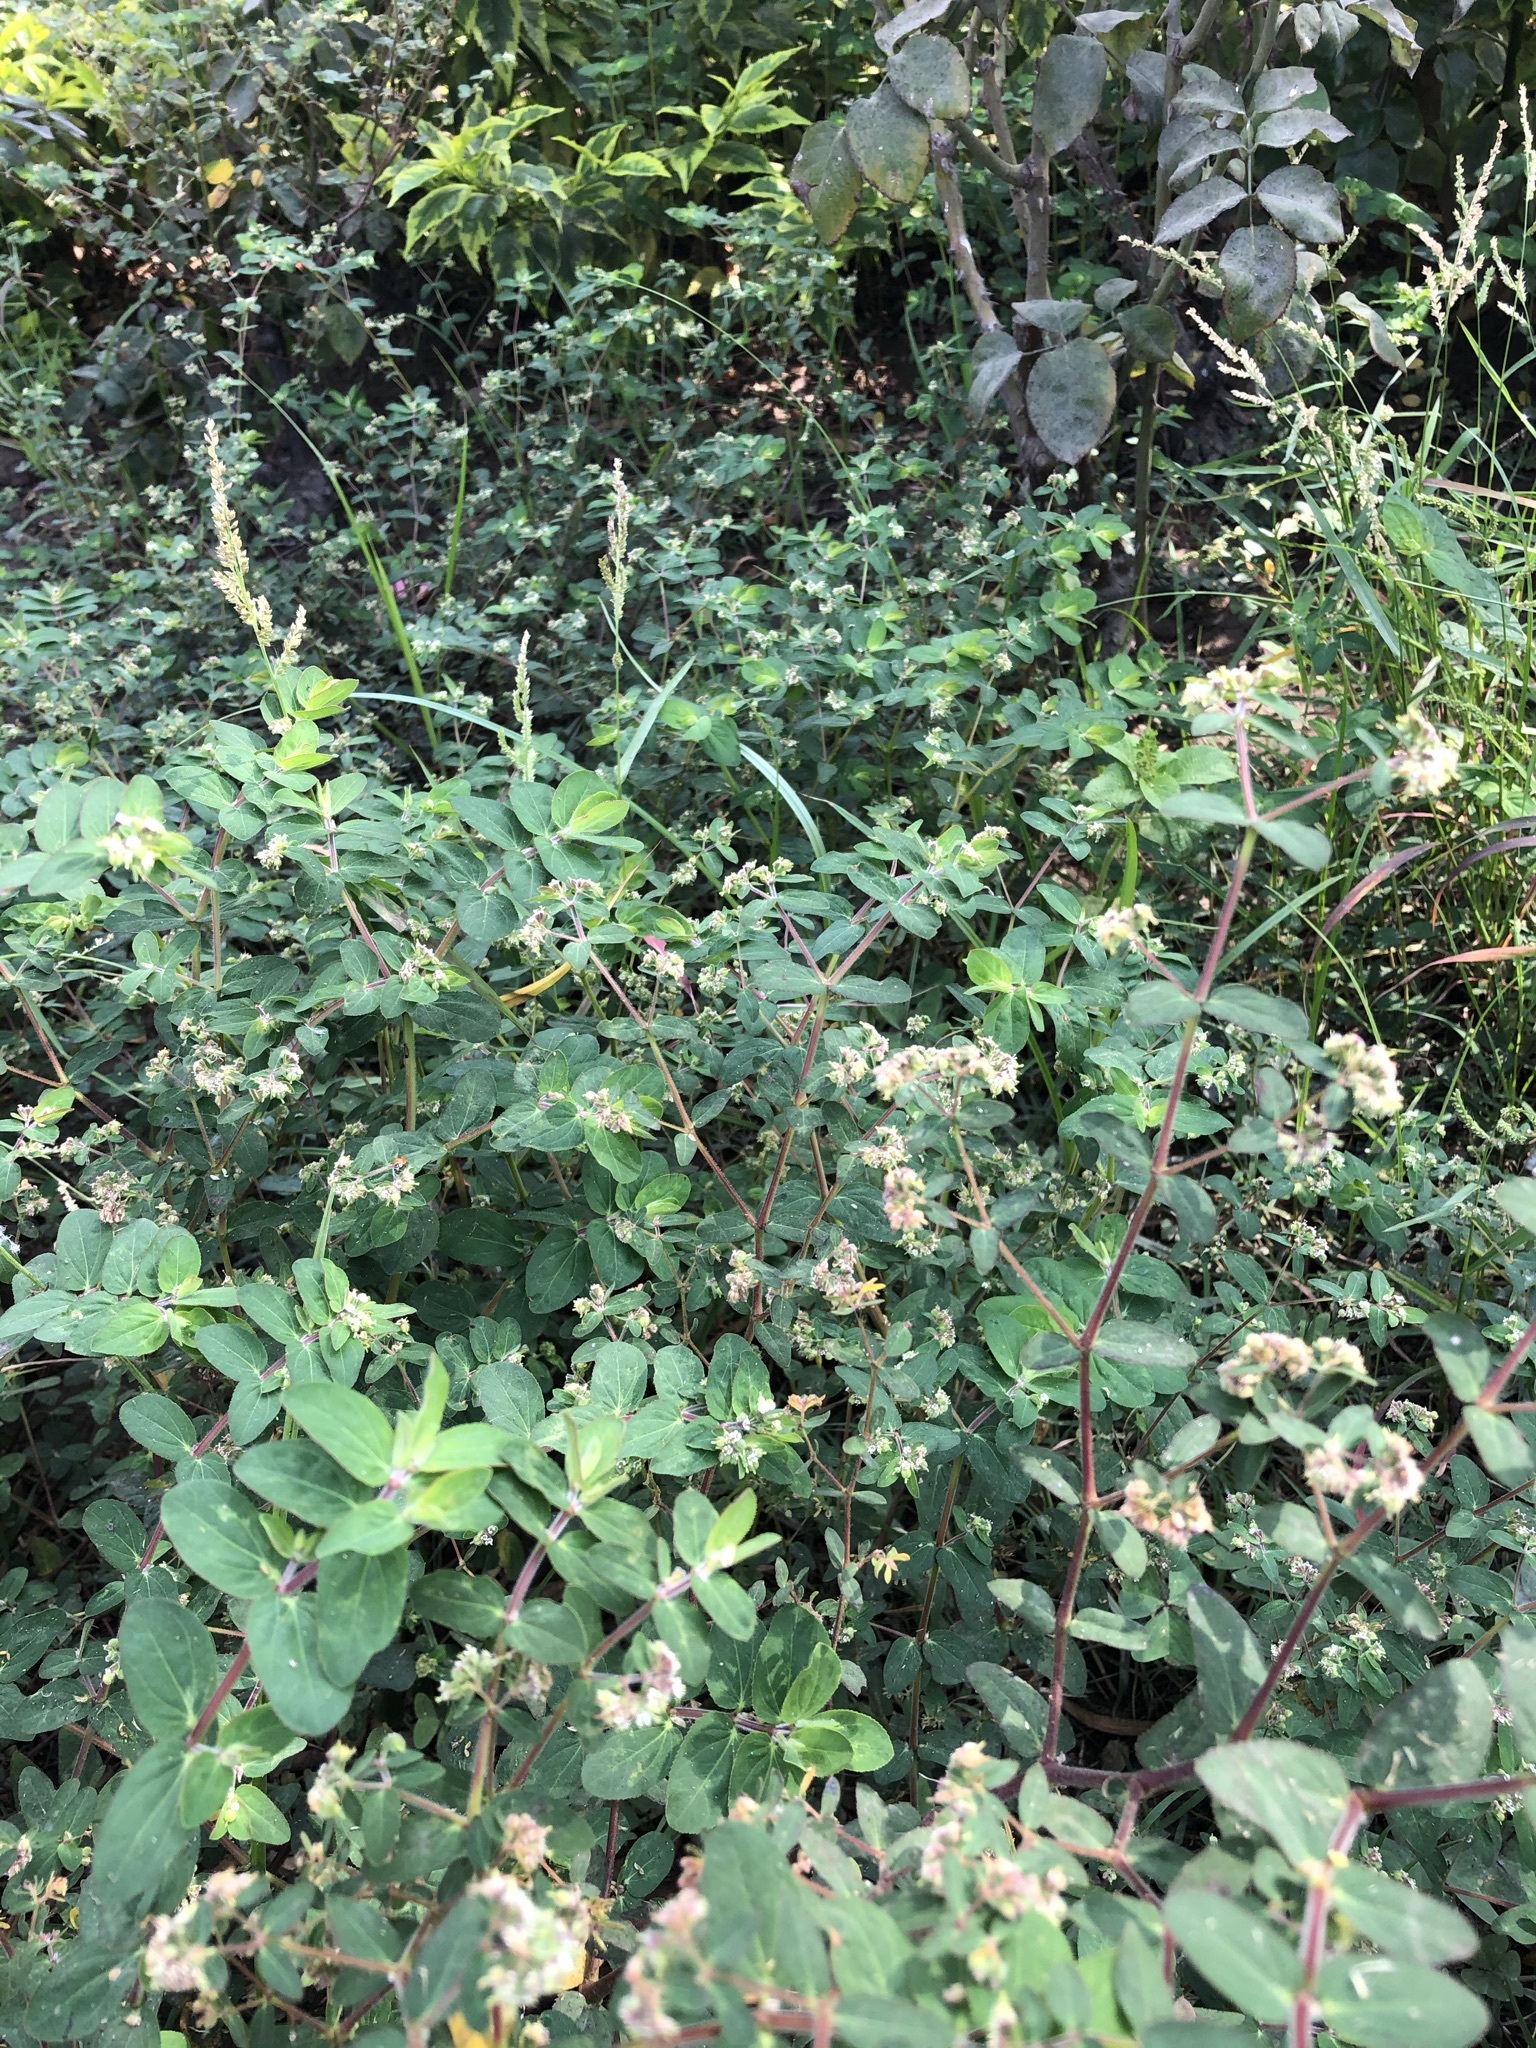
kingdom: Plantae
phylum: Tracheophyta
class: Magnoliopsida
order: Malpighiales
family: Euphorbiaceae
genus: Euphorbia
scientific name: Euphorbia lasiocarpa
